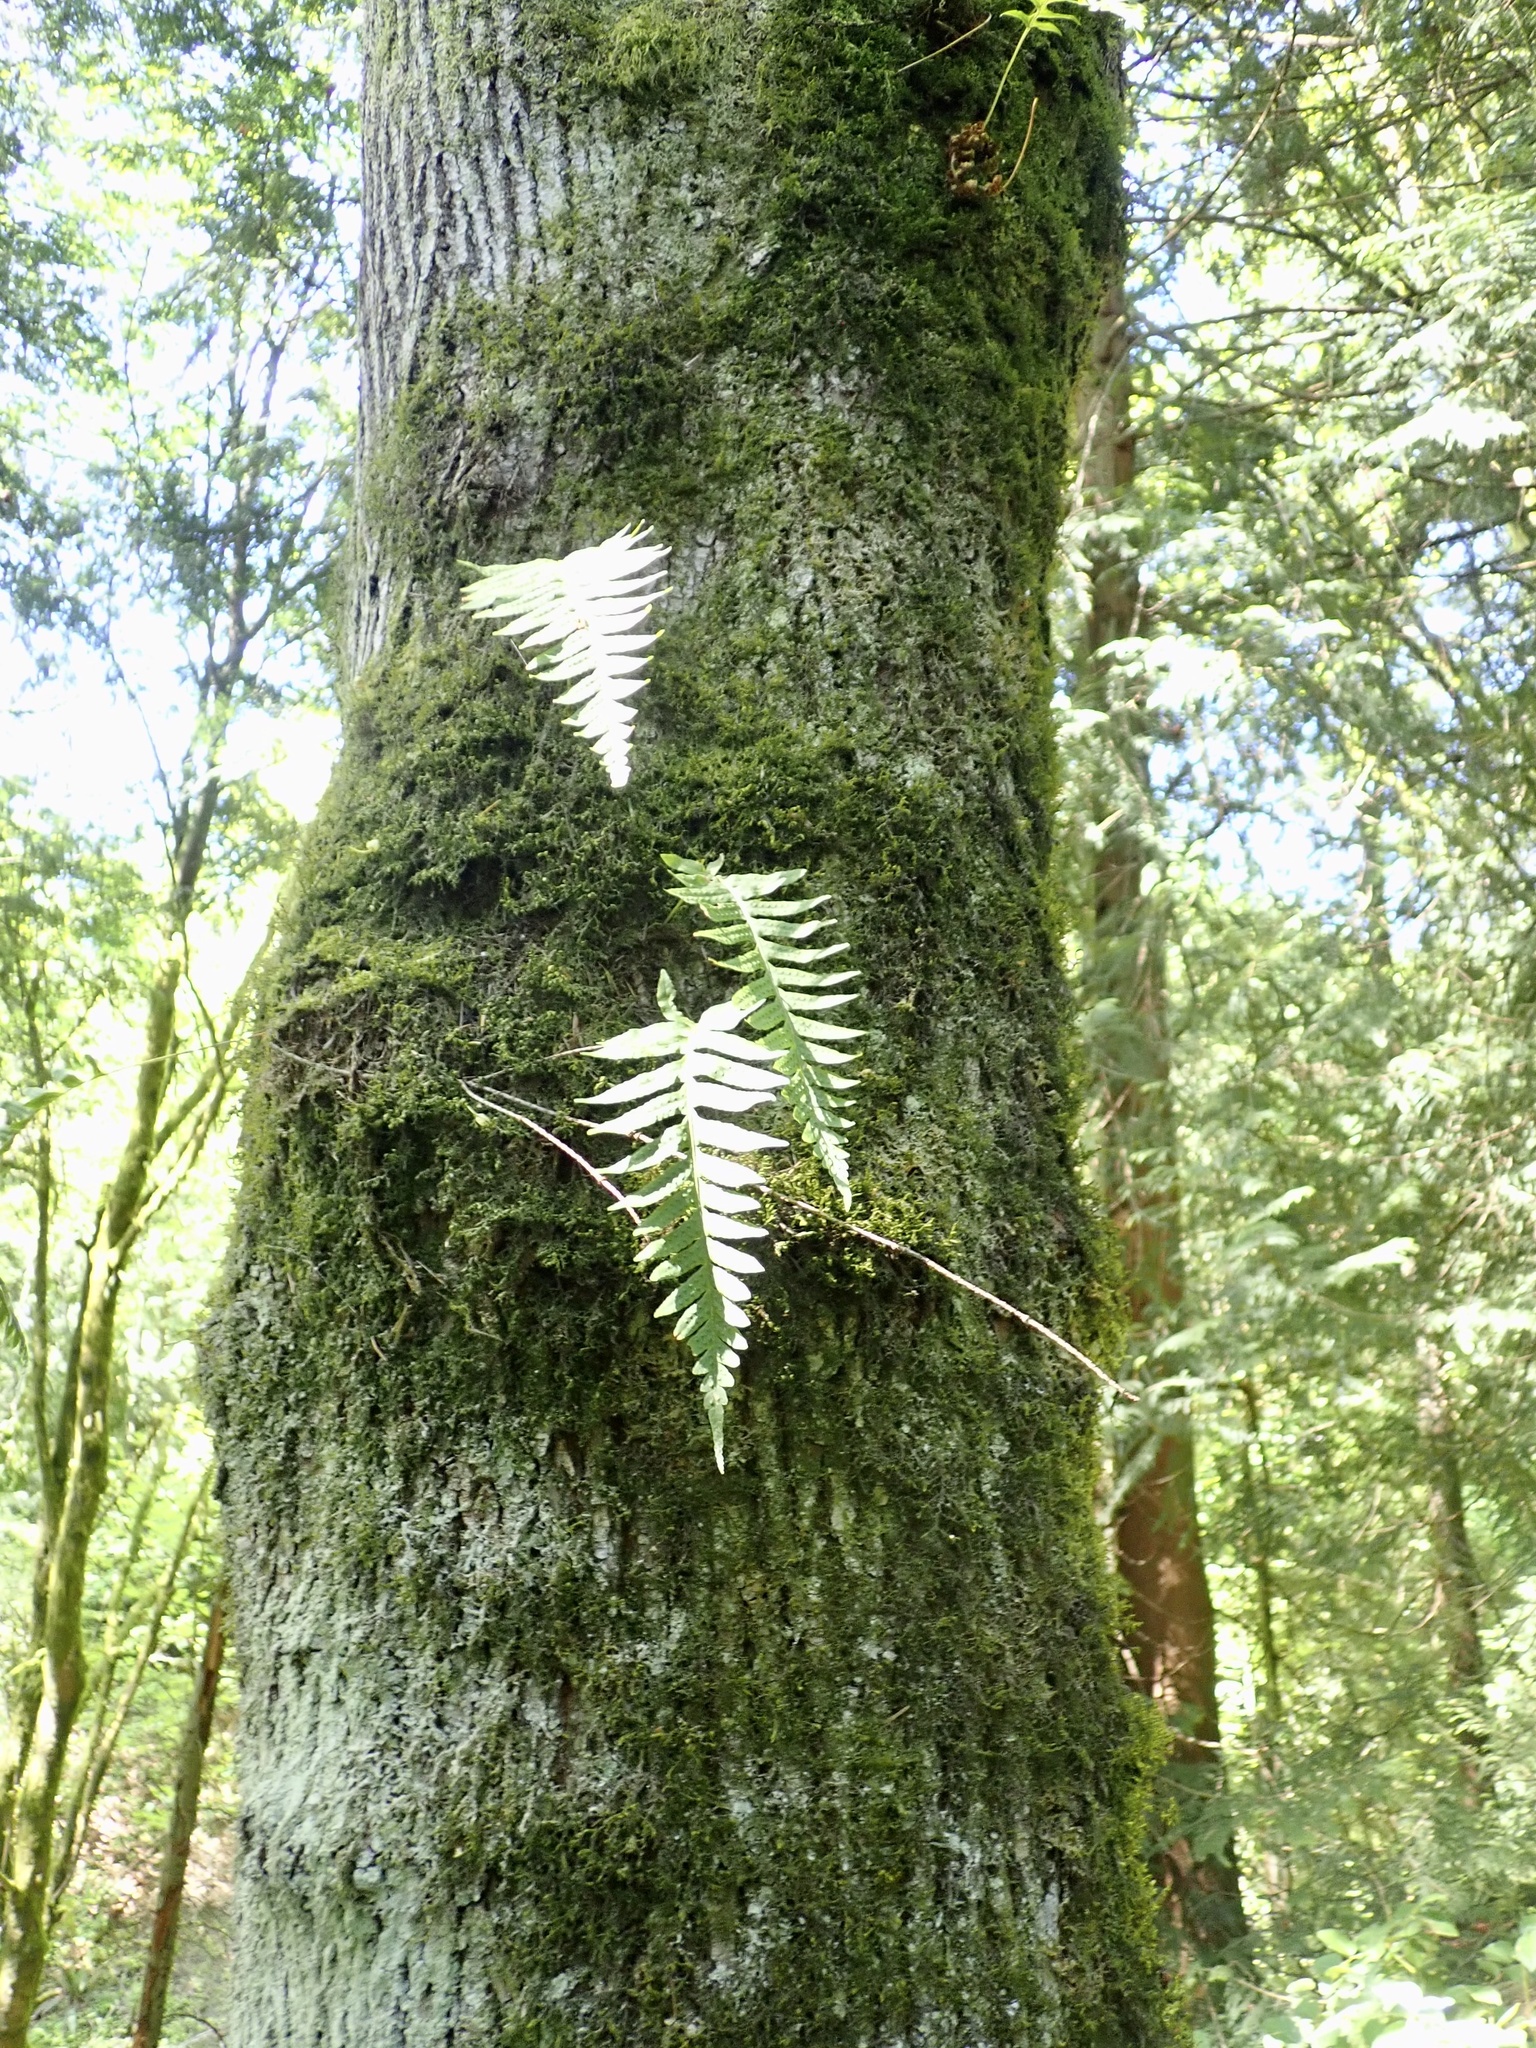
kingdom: Plantae
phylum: Tracheophyta
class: Polypodiopsida
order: Polypodiales
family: Polypodiaceae
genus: Polypodium
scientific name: Polypodium glycyrrhiza
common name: Licorice fern
